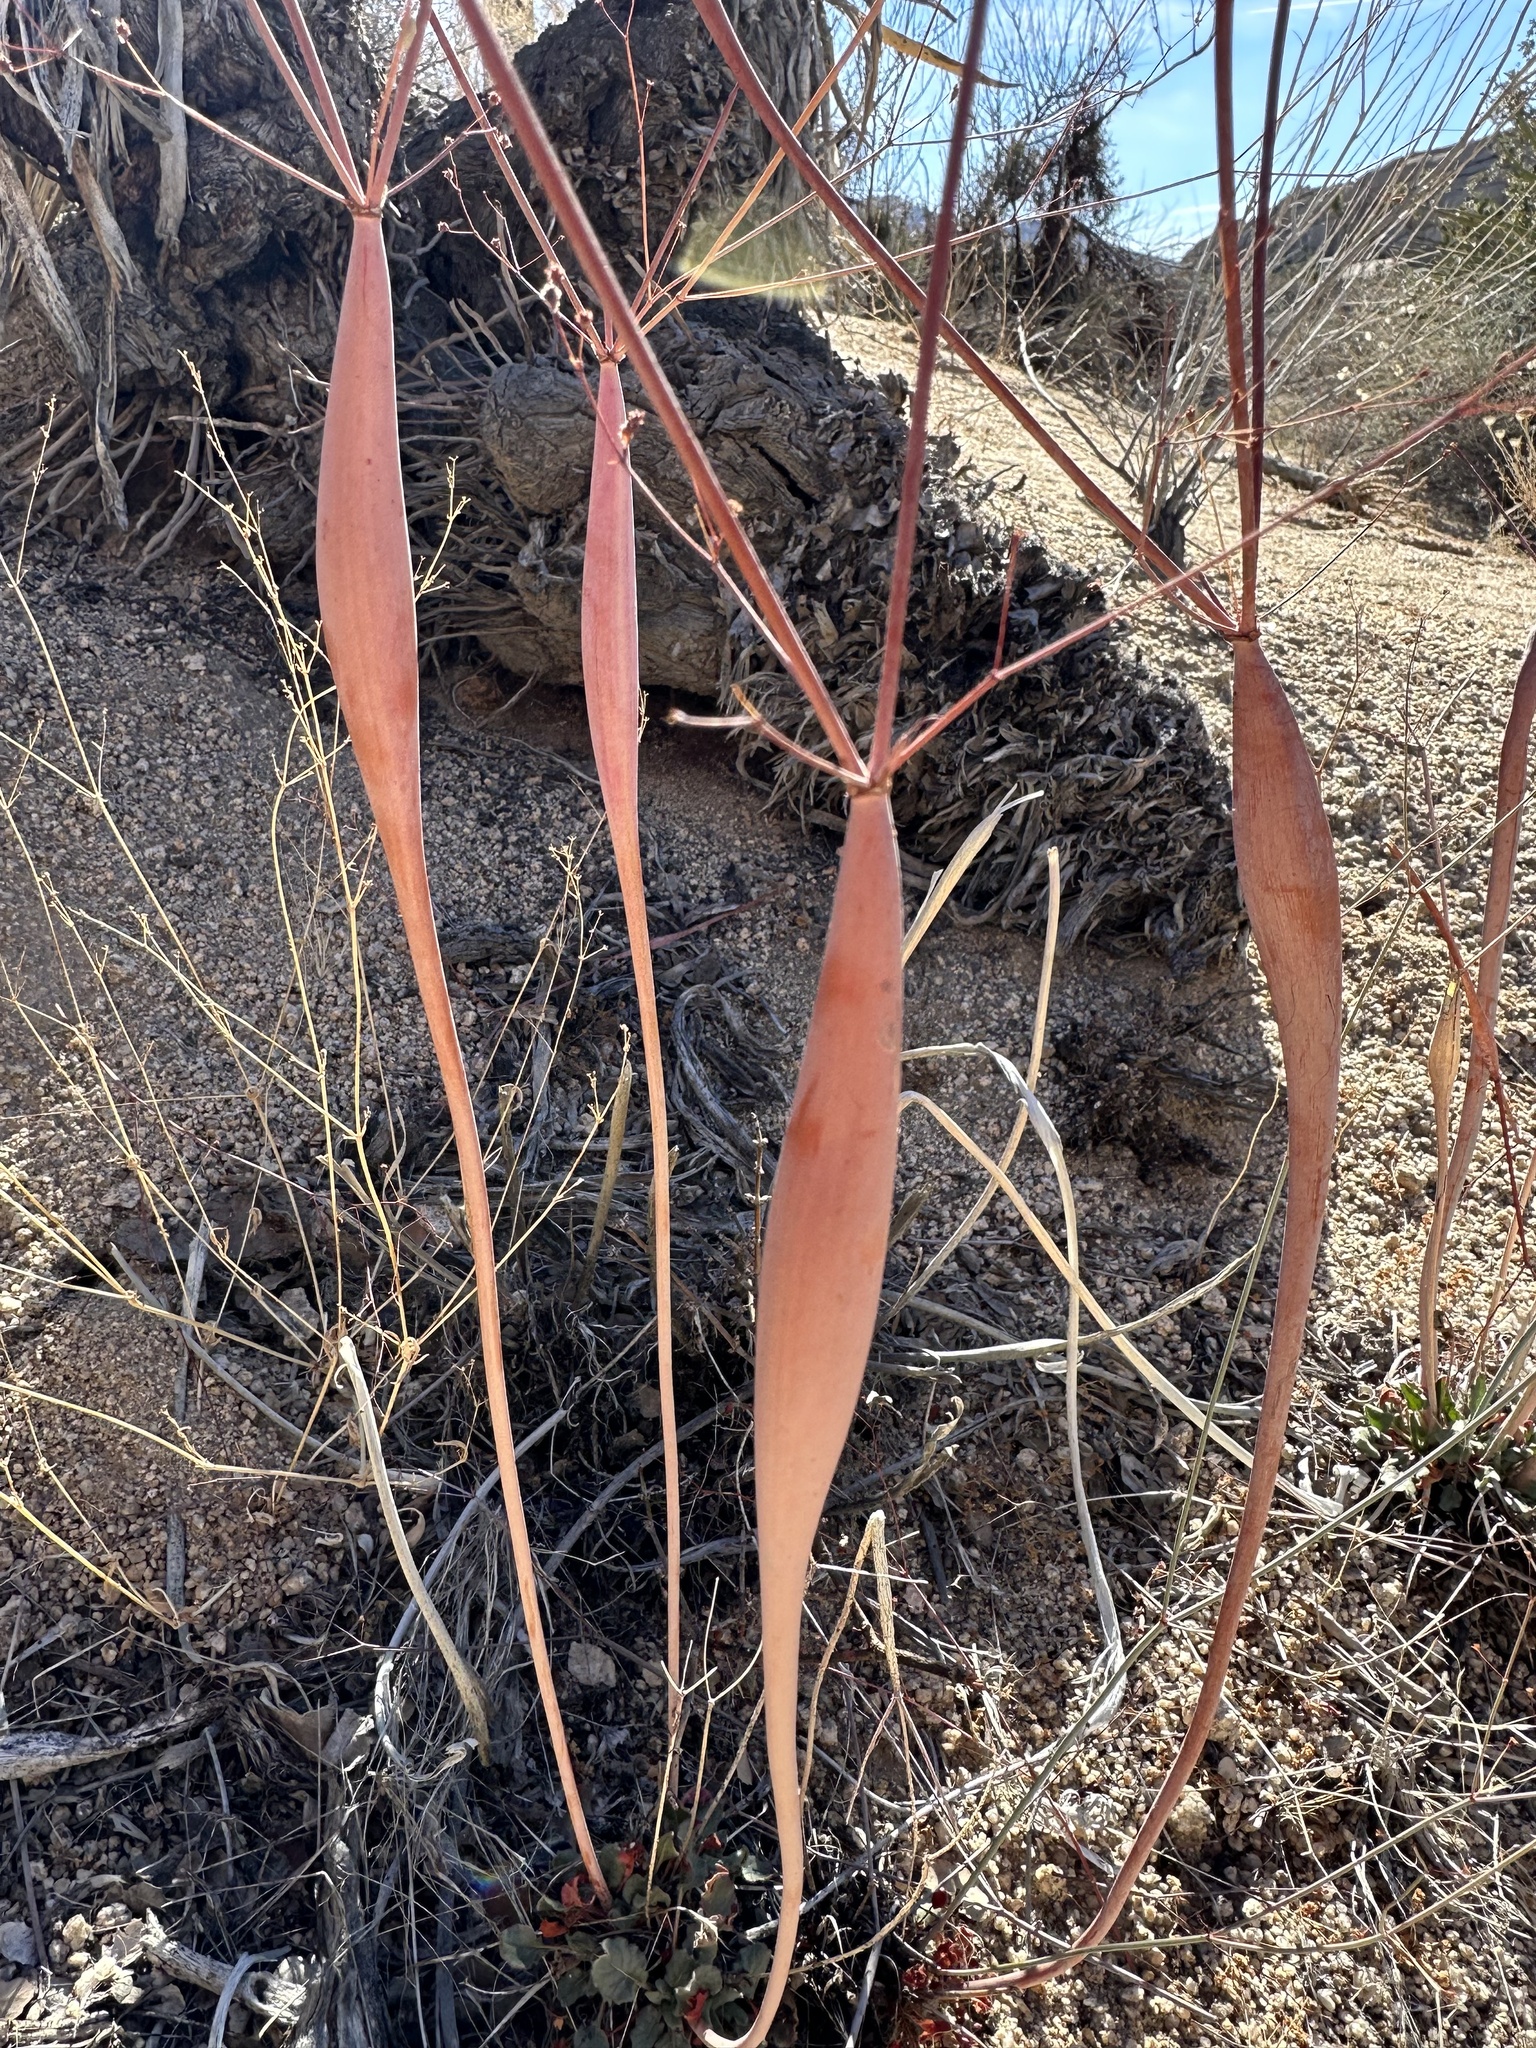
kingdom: Plantae
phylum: Tracheophyta
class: Magnoliopsida
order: Caryophyllales
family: Polygonaceae
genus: Eriogonum
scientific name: Eriogonum inflatum
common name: Desert trumpet
